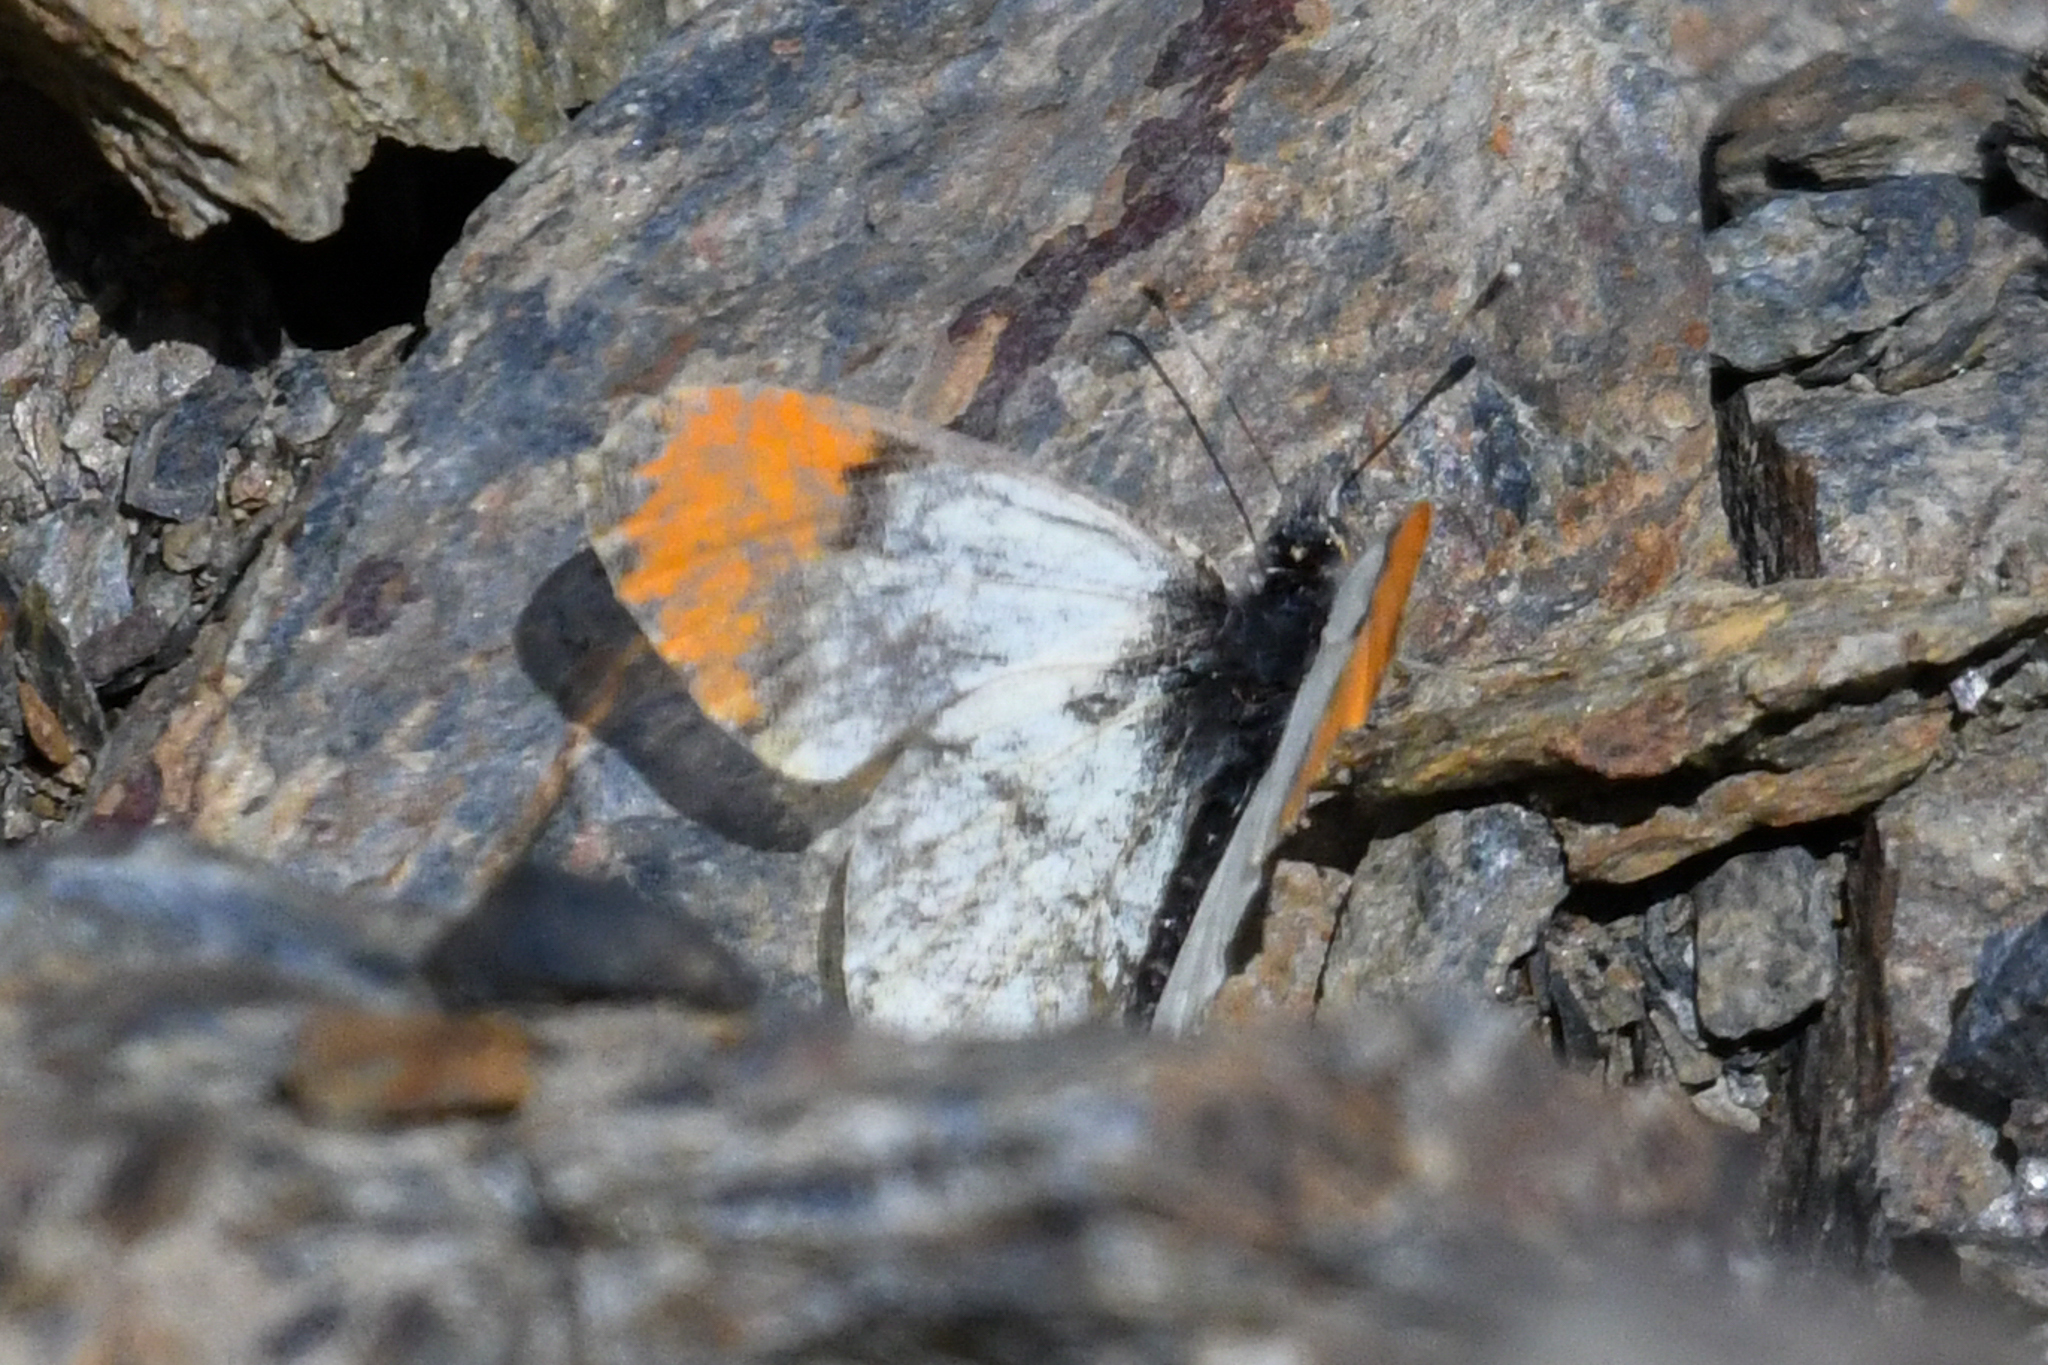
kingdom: Animalia
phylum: Arthropoda
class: Insecta
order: Lepidoptera
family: Pieridae
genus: Anthocharis
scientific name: Anthocharis julia
